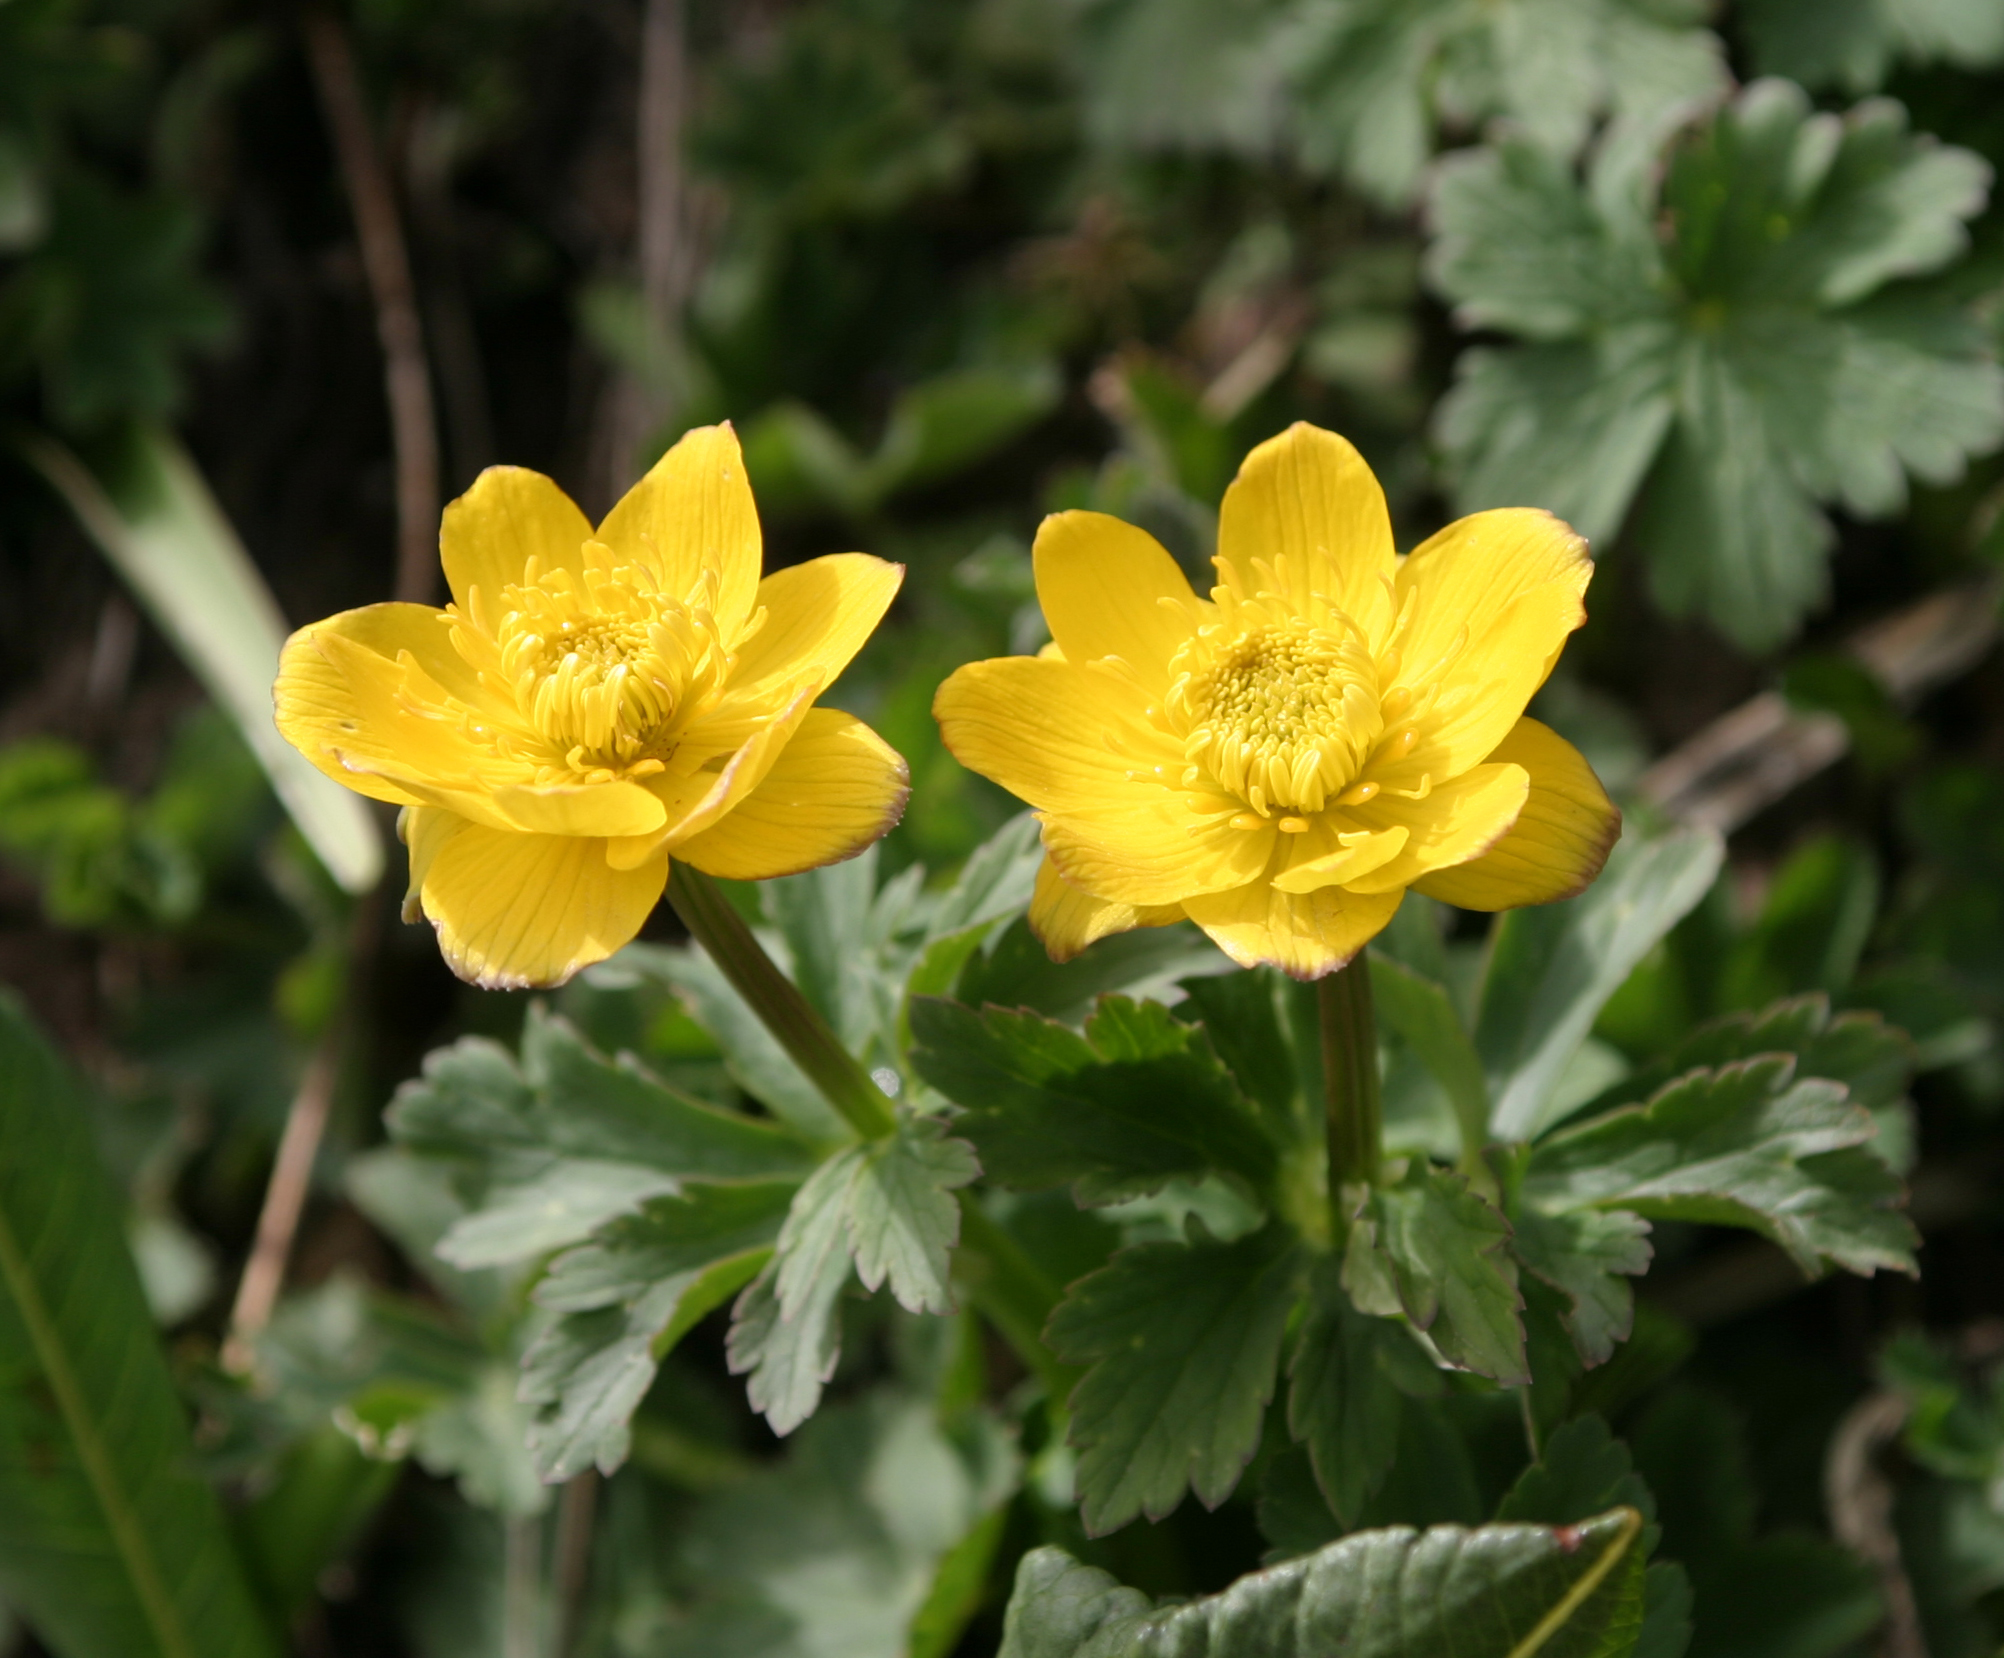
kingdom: Plantae
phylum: Tracheophyta
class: Magnoliopsida
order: Ranunculales
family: Ranunculaceae
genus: Trollius
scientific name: Trollius dschungaricus
